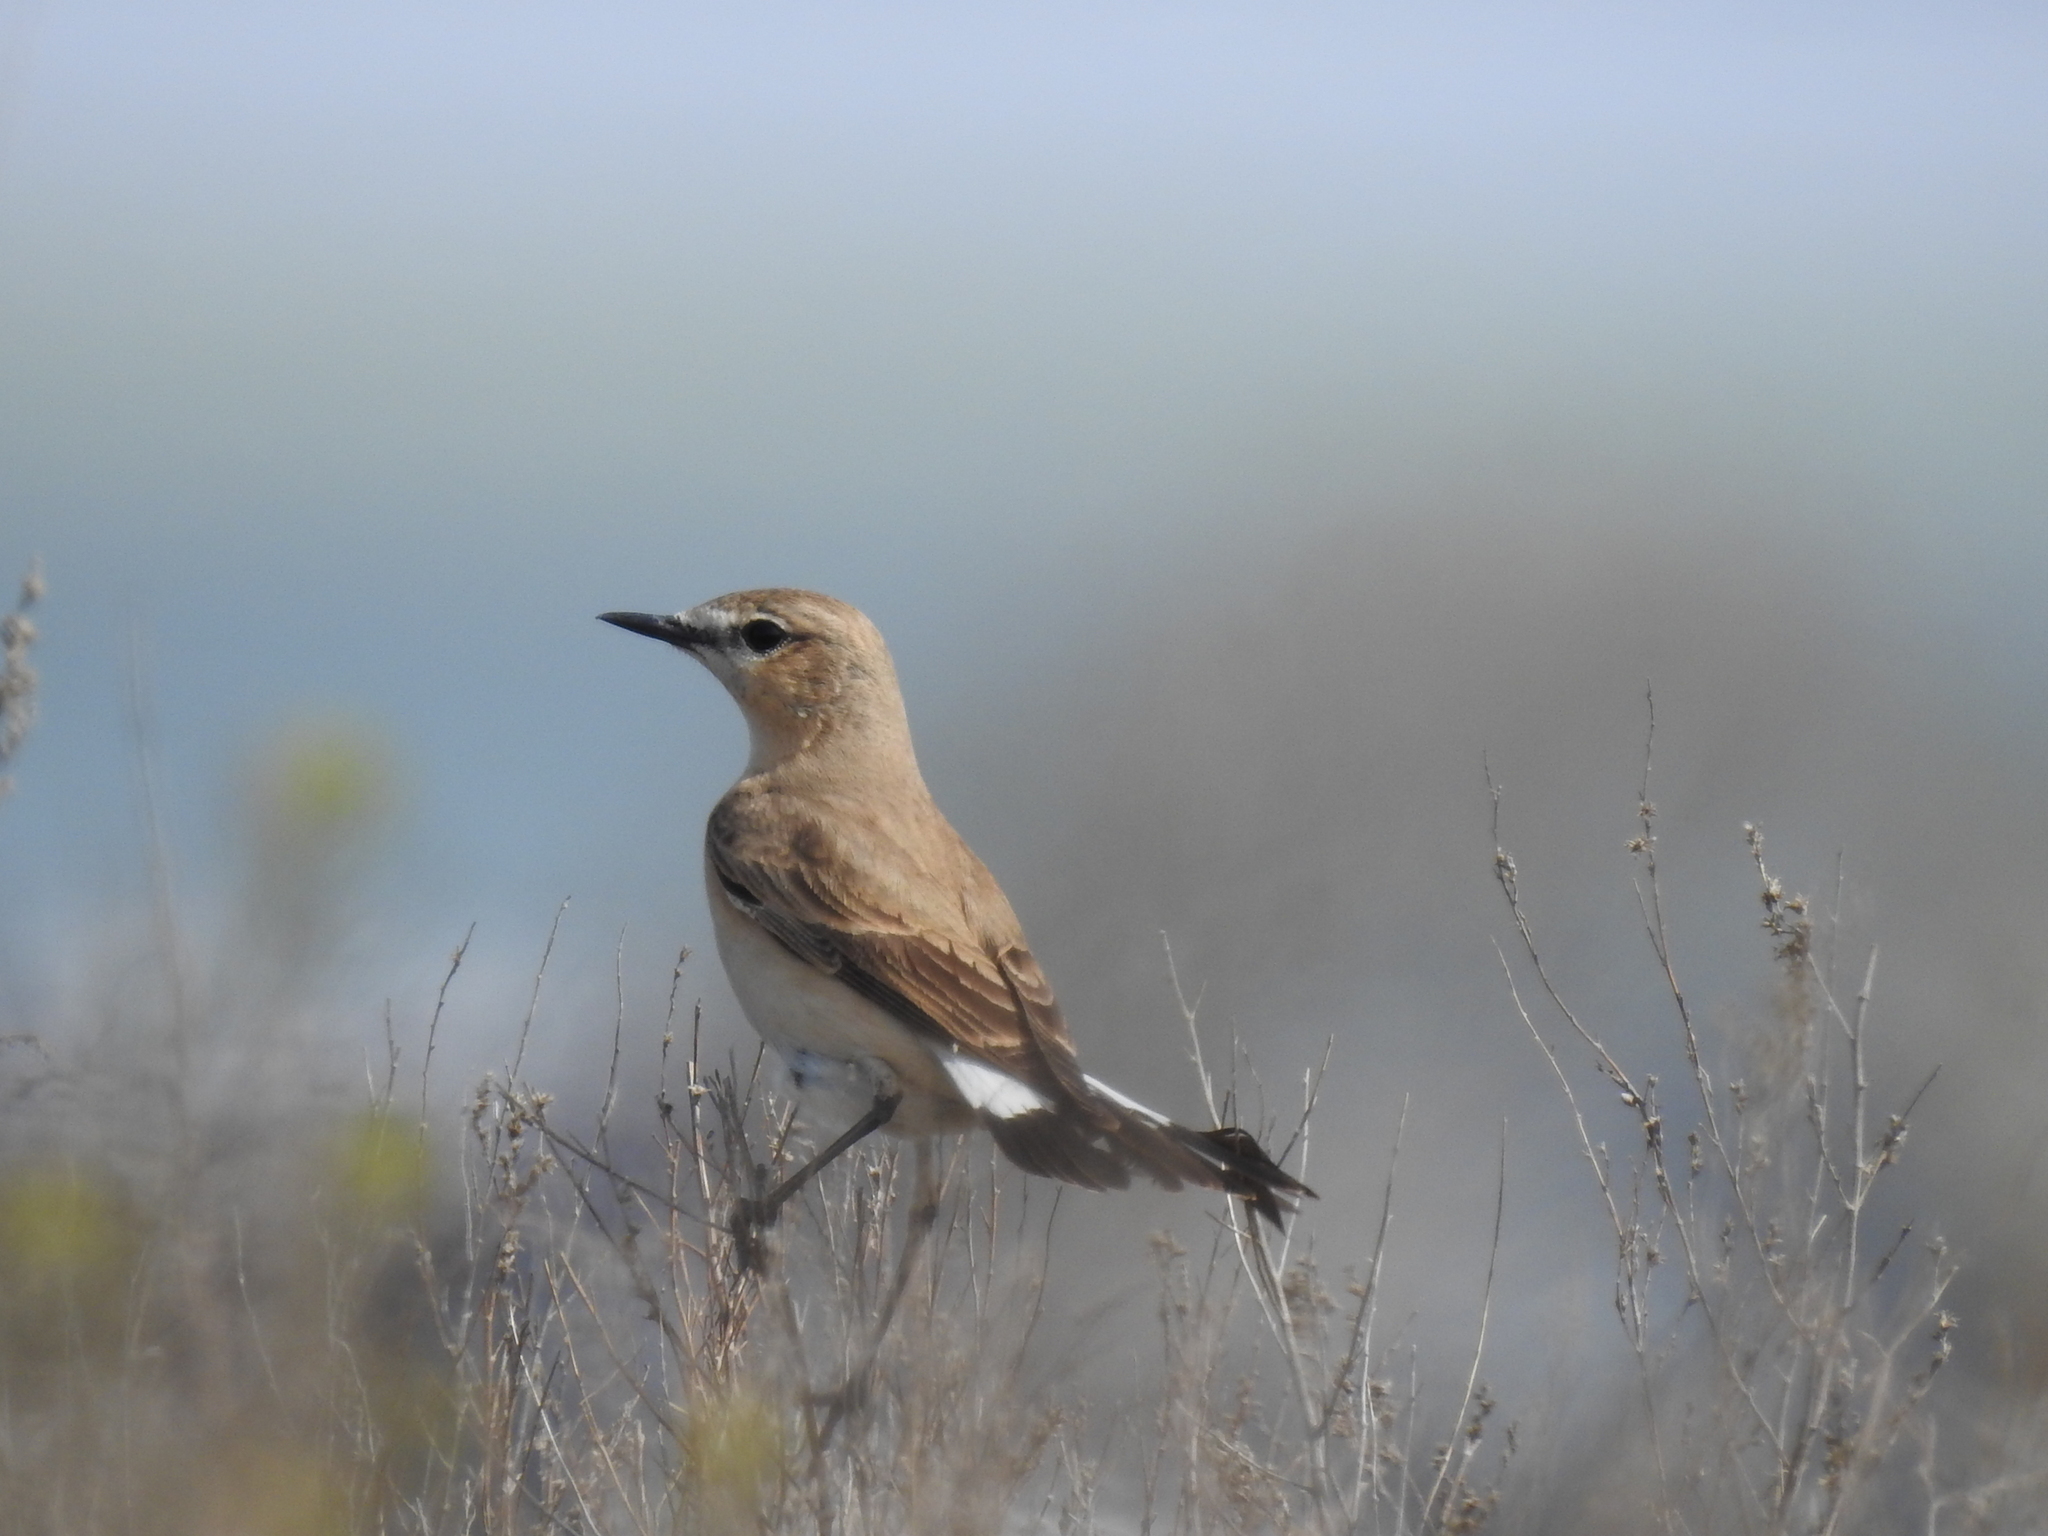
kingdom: Animalia
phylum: Chordata
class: Aves
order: Passeriformes
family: Muscicapidae
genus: Oenanthe
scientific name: Oenanthe isabellina
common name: Isabelline wheatear
